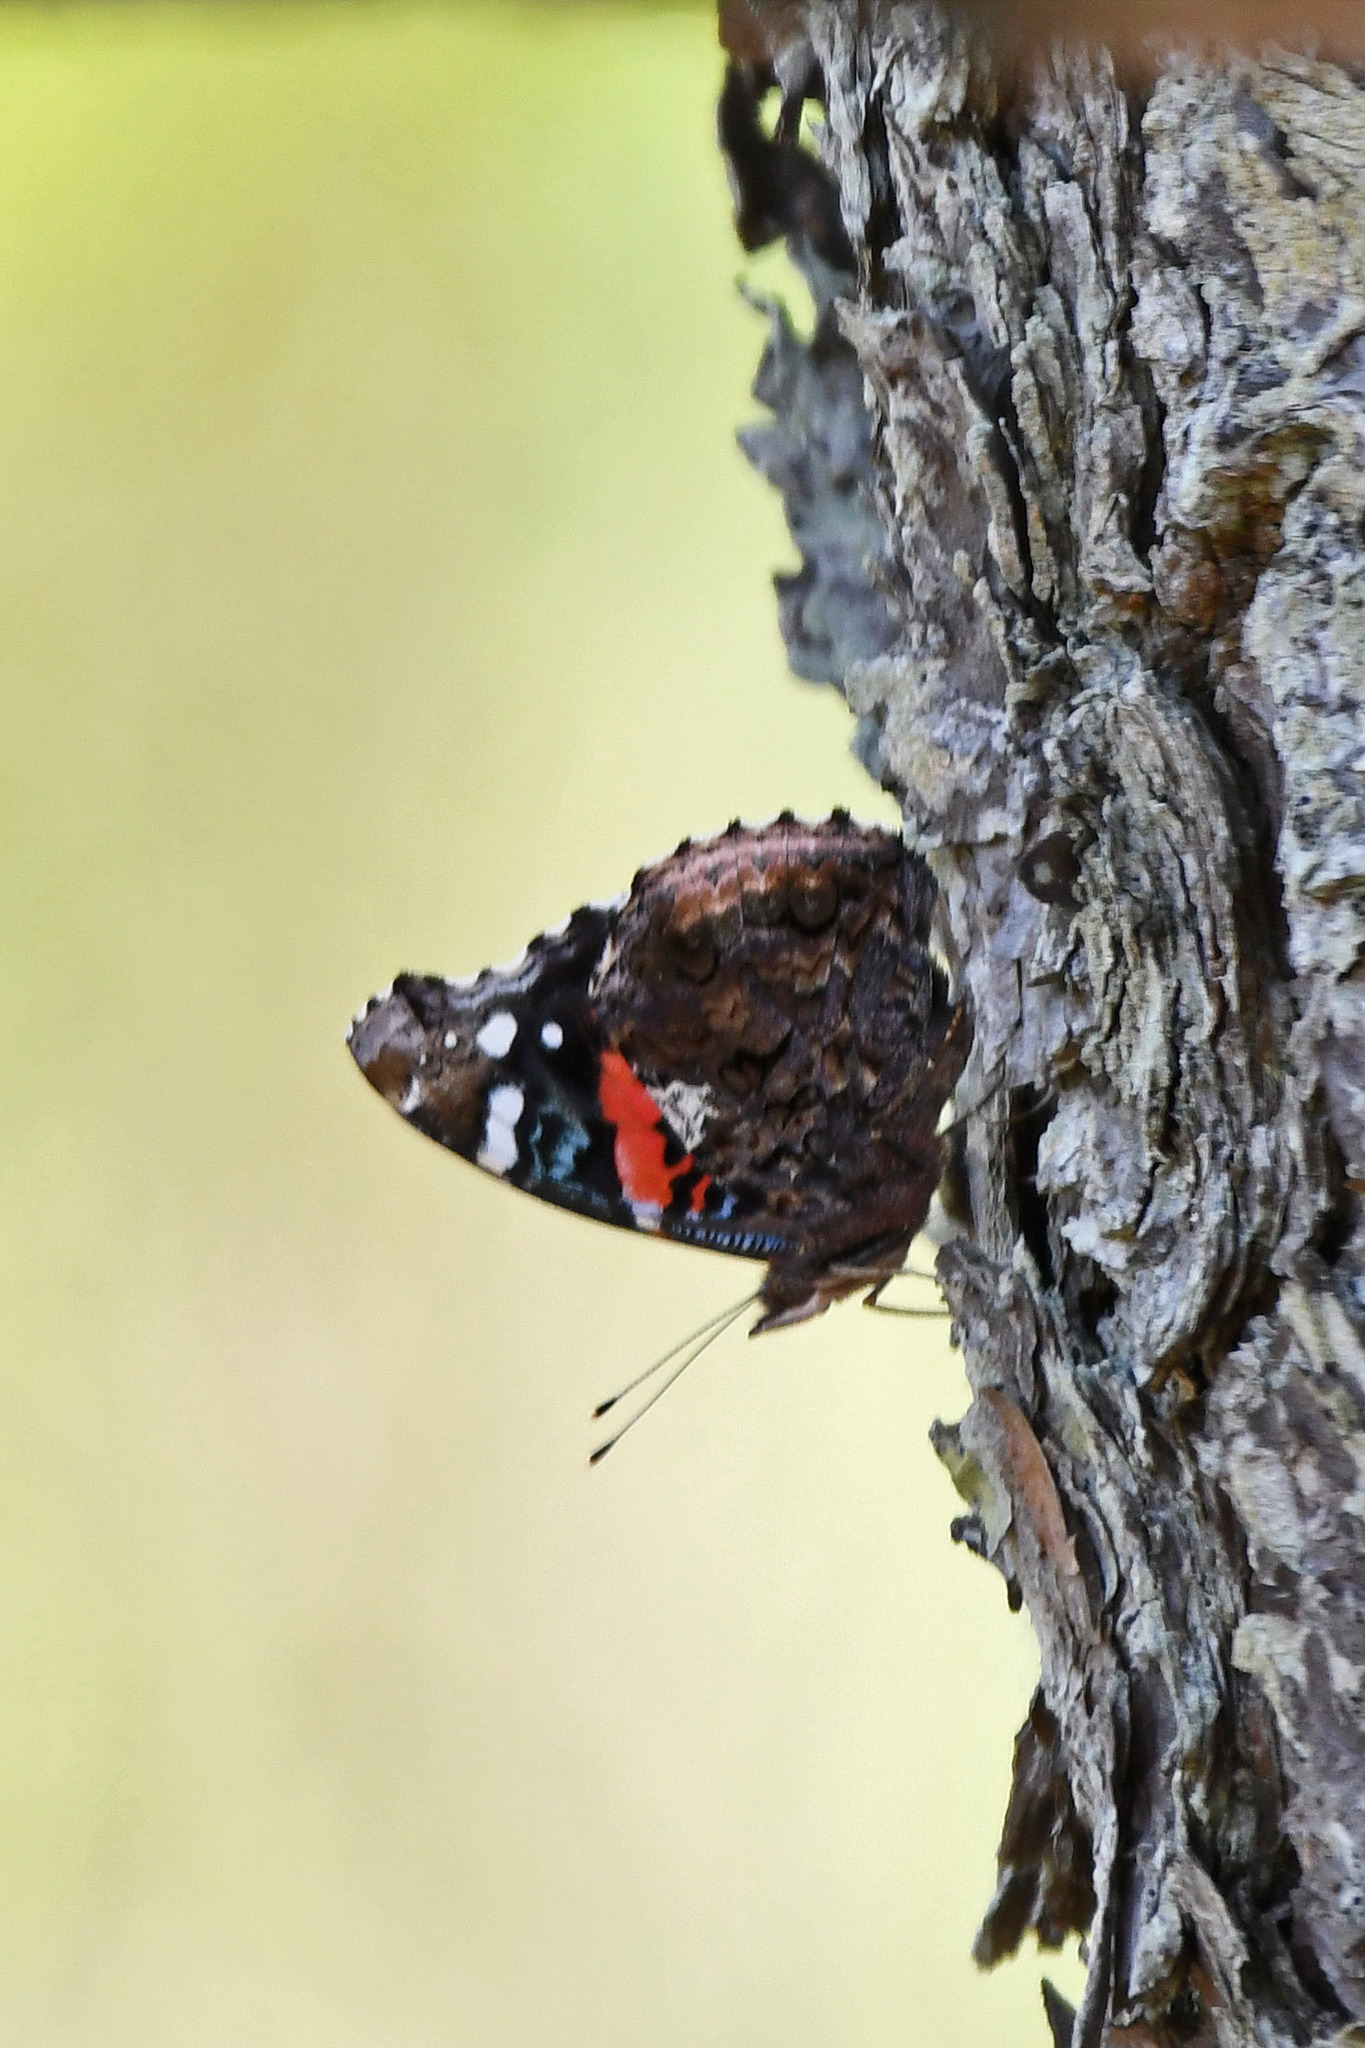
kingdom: Animalia
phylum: Arthropoda
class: Insecta
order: Lepidoptera
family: Nymphalidae
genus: Vanessa
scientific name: Vanessa atalanta
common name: Red admiral
